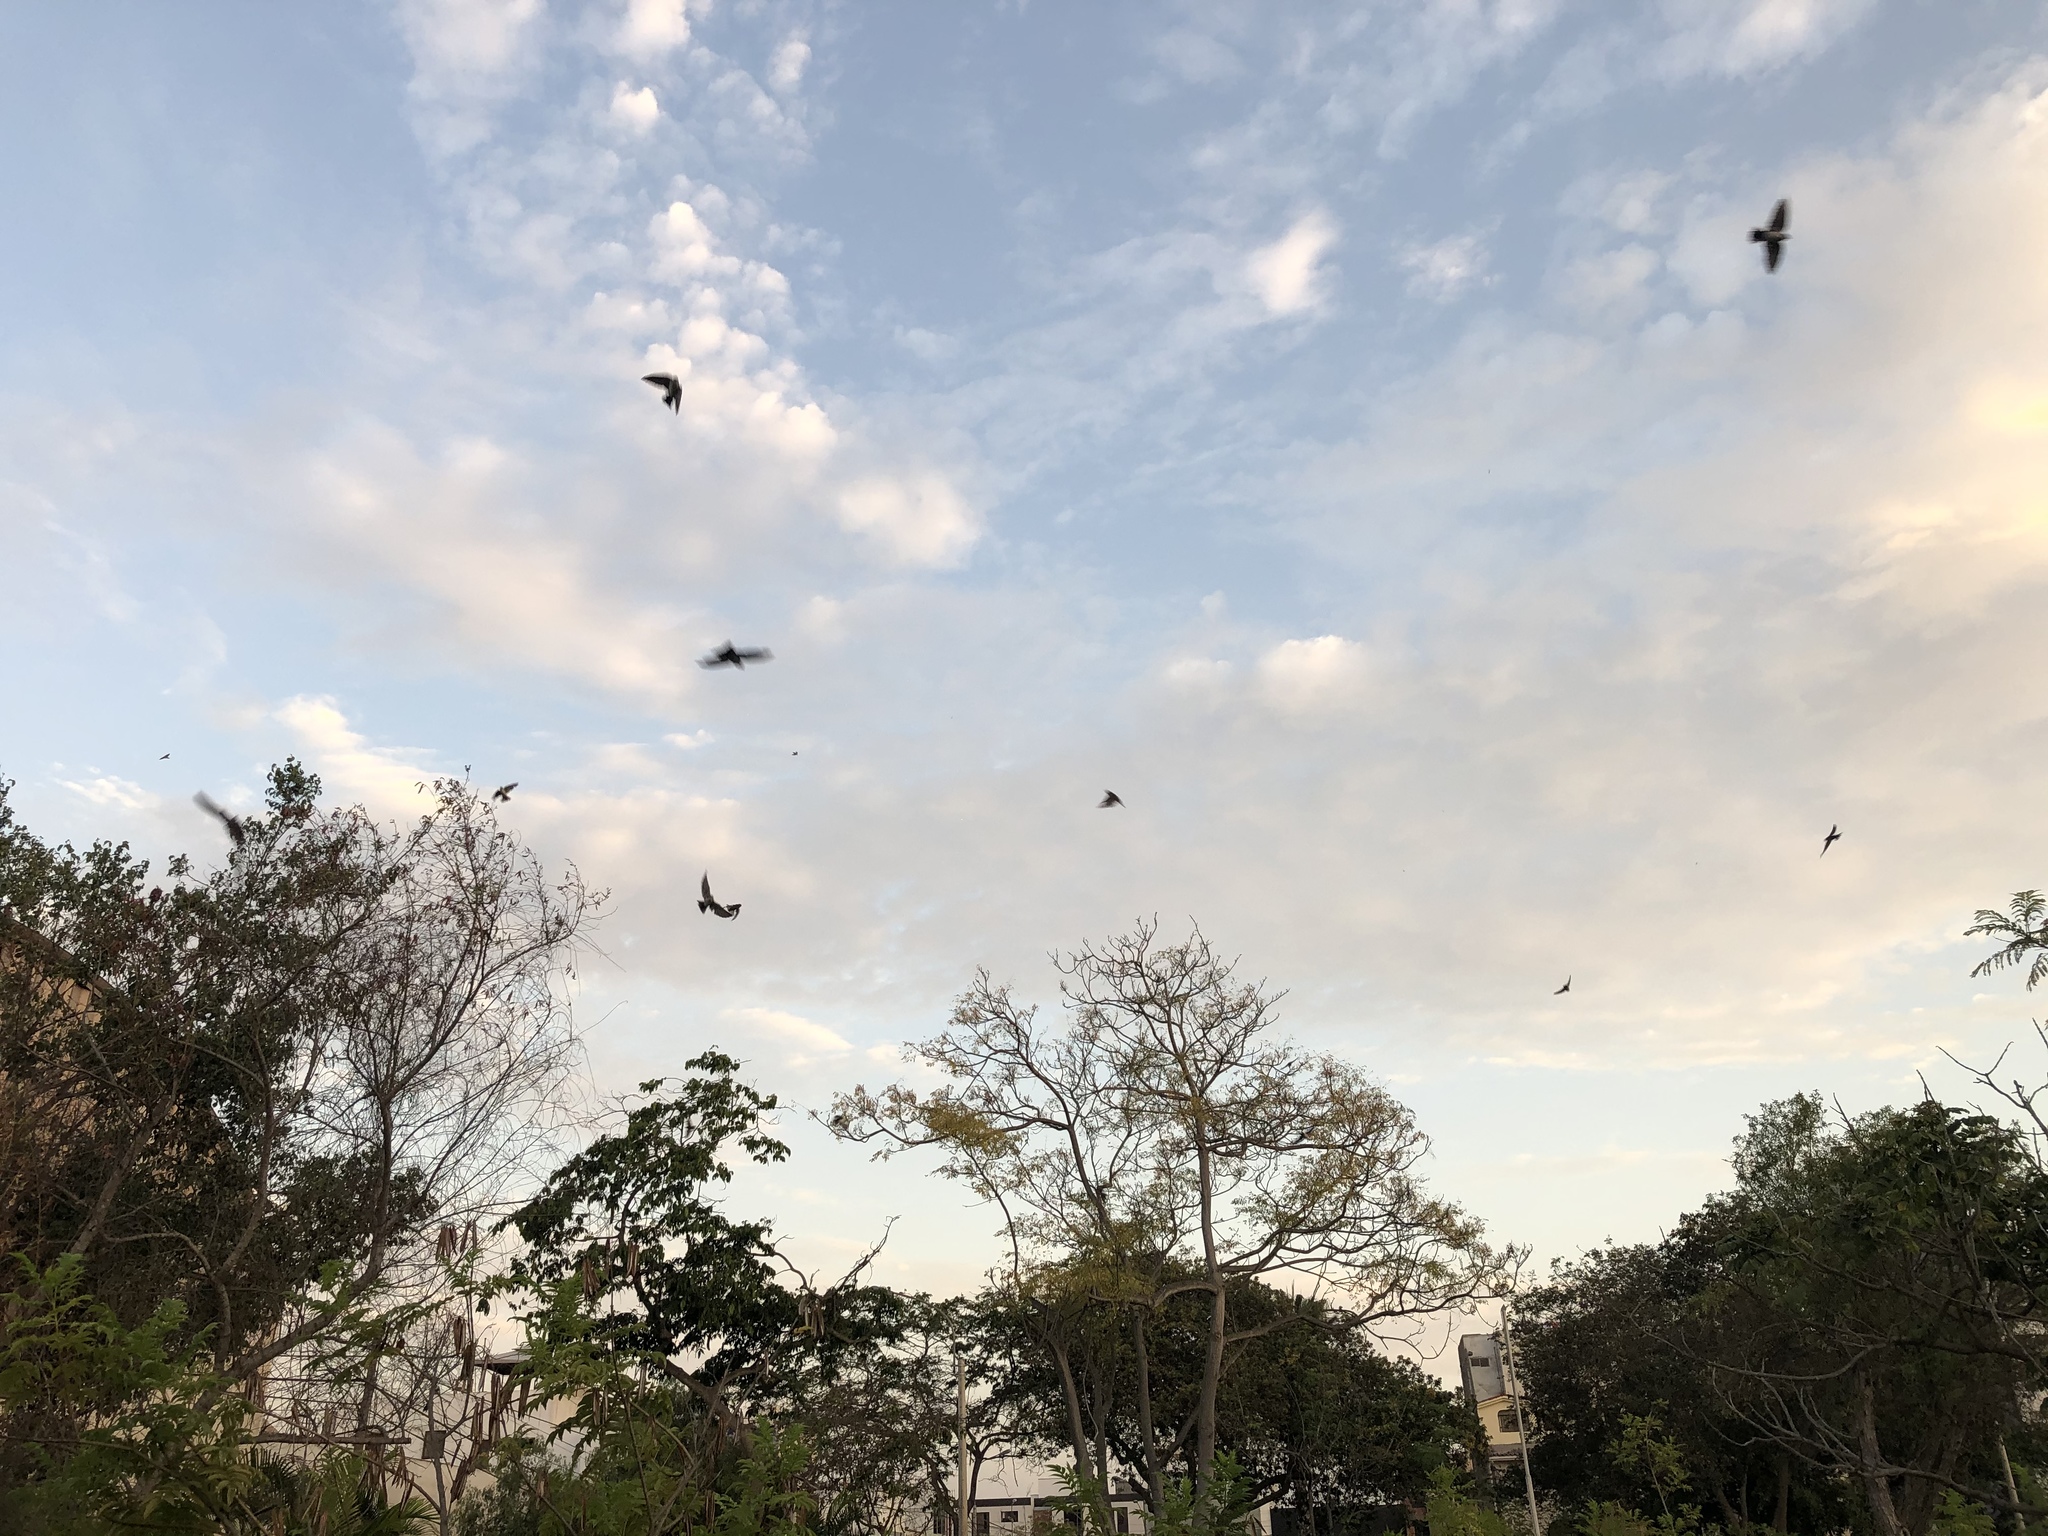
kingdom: Animalia
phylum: Chordata
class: Aves
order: Passeriformes
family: Hirundinidae
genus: Notiochelidon
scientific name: Notiochelidon cyanoleuca
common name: Blue-and-white swallow
